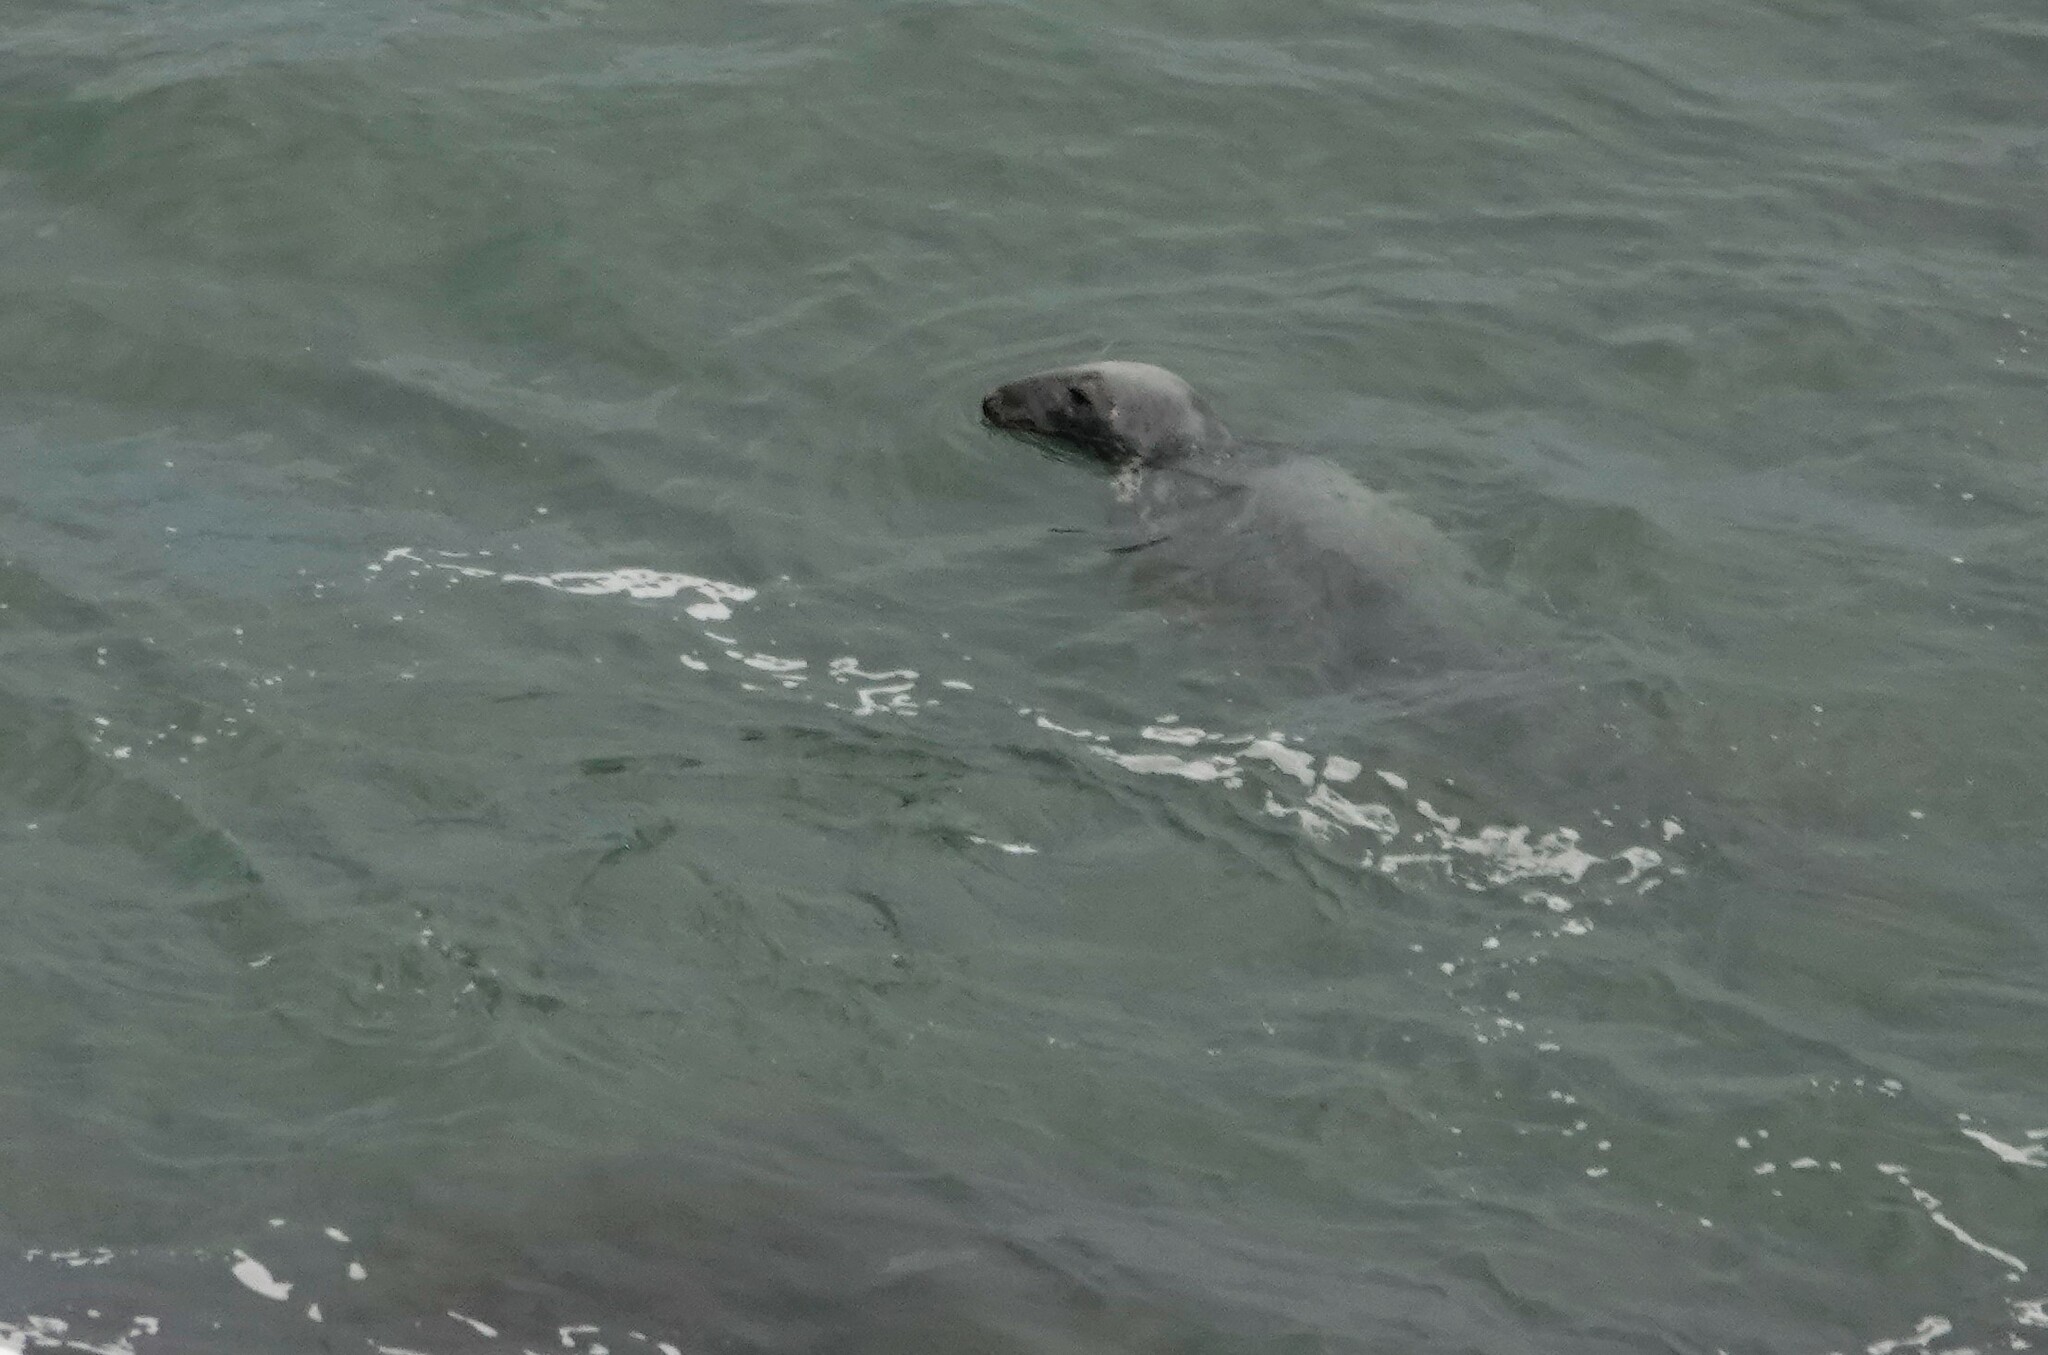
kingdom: Animalia
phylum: Chordata
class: Mammalia
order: Carnivora
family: Phocidae
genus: Halichoerus
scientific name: Halichoerus grypus
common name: Grey seal
